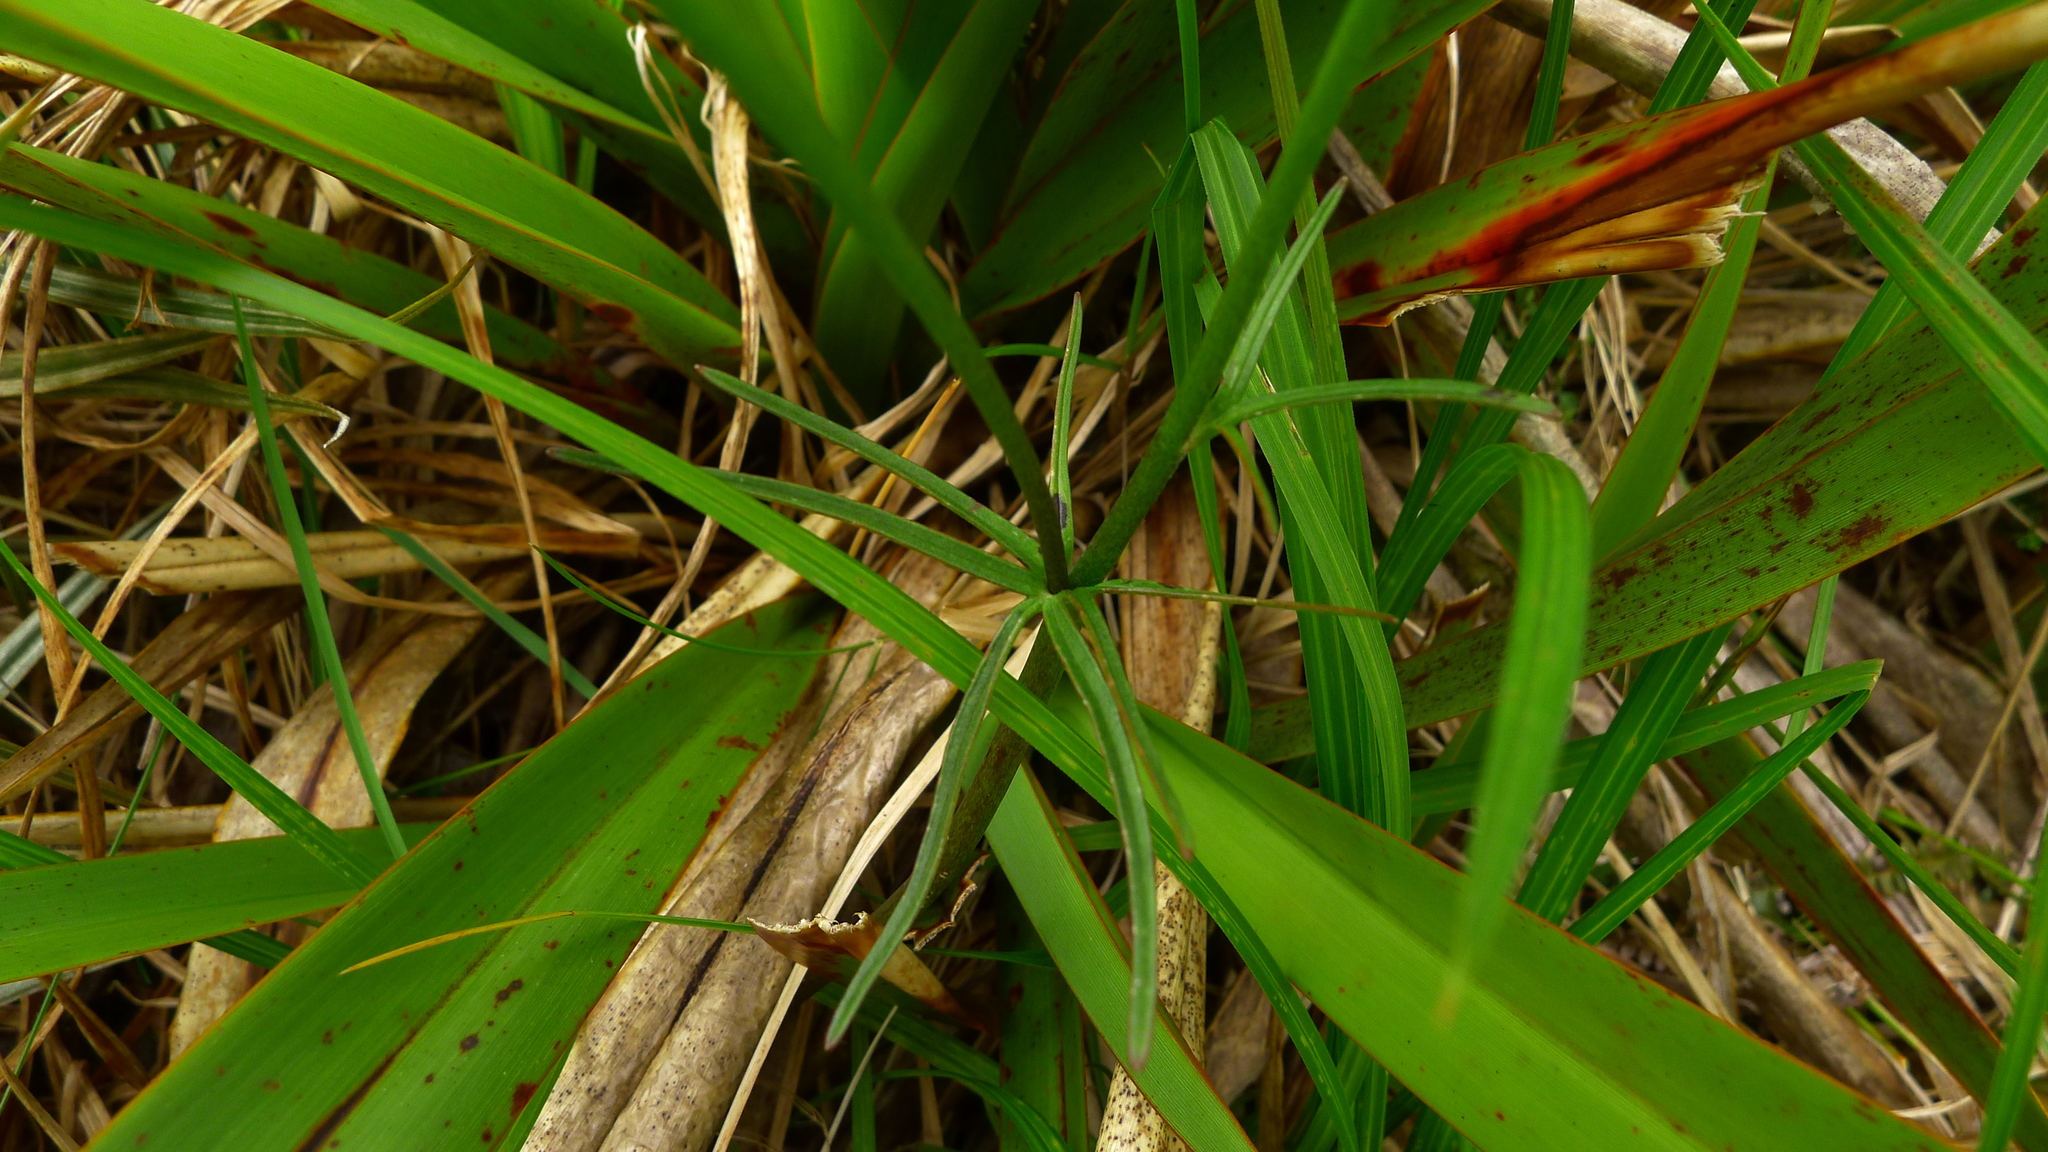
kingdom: Plantae
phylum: Tracheophyta
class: Magnoliopsida
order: Ranunculales
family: Ranunculaceae
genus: Ranunculus
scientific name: Ranunculus verticillatus
